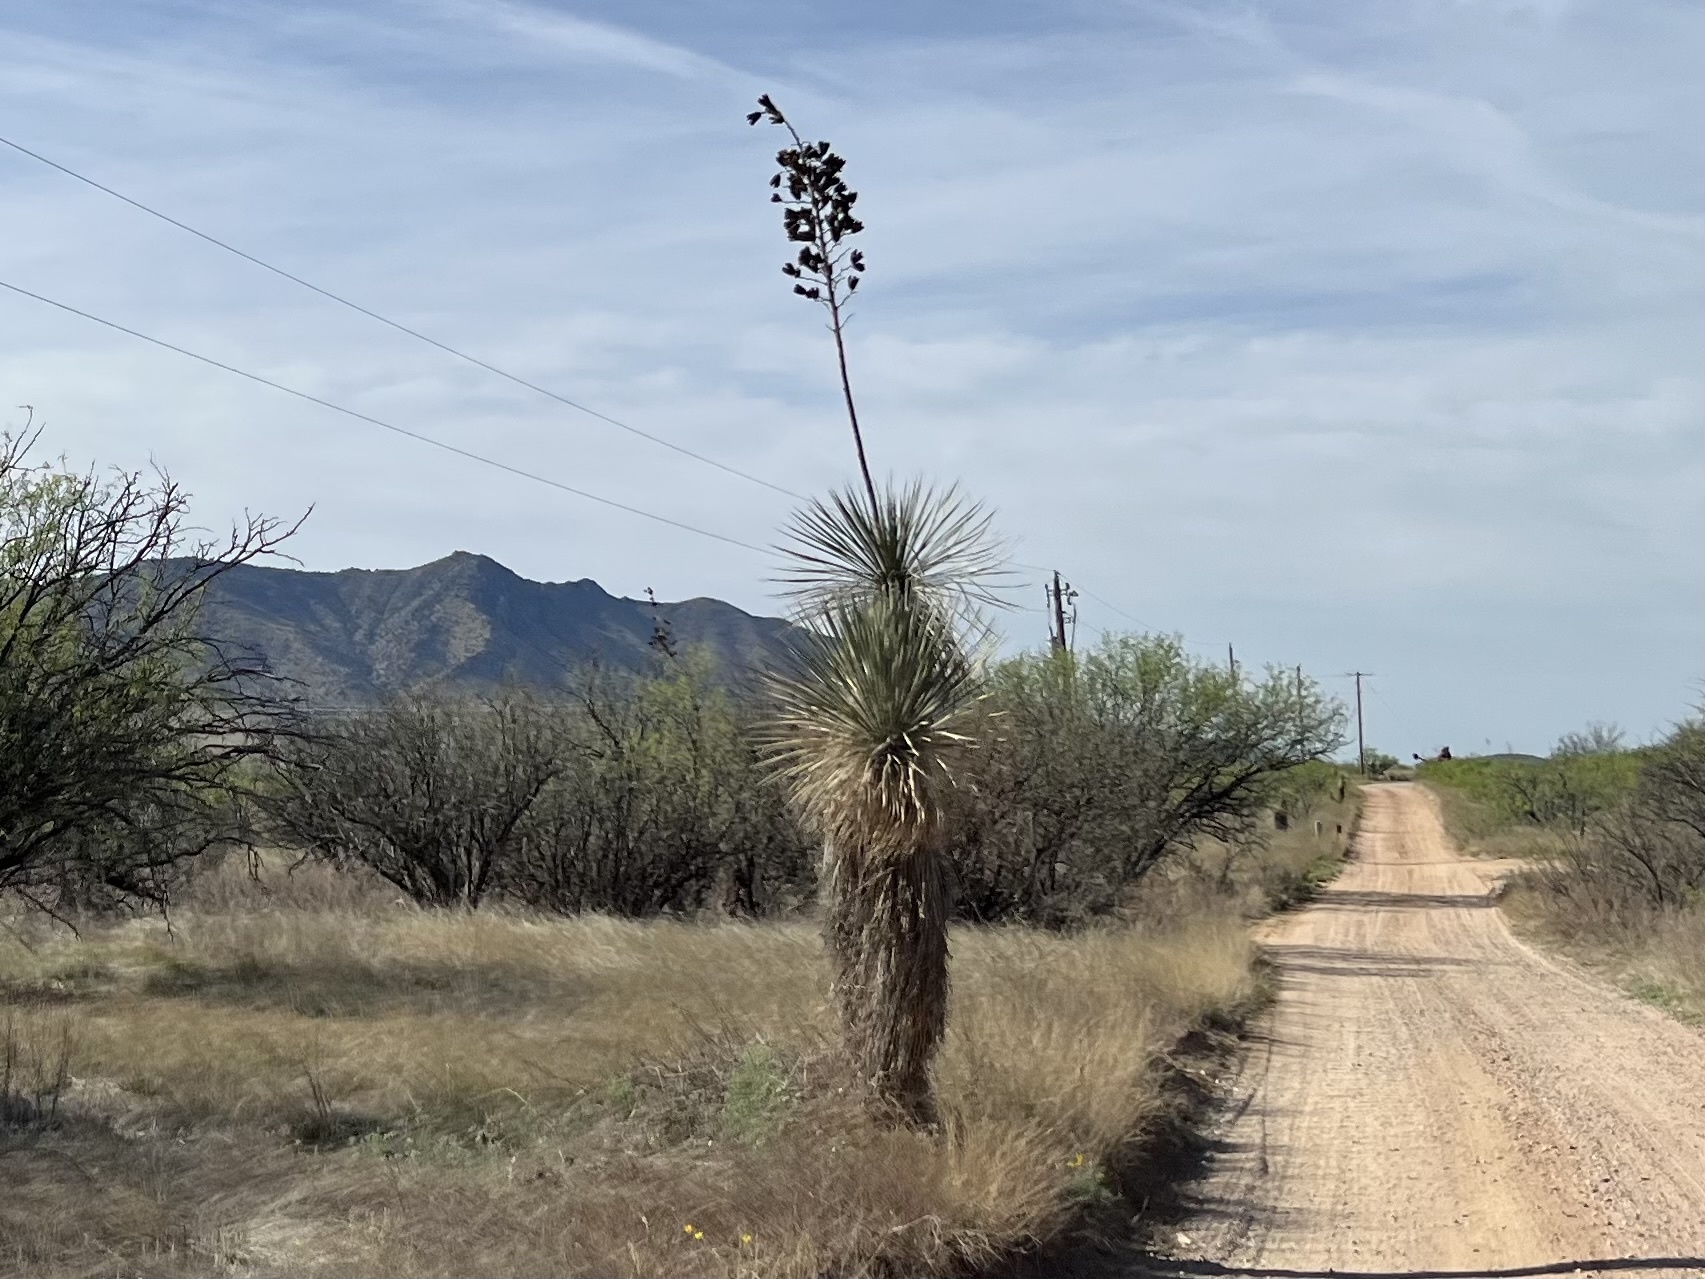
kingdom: Plantae
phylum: Tracheophyta
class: Liliopsida
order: Asparagales
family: Asparagaceae
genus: Yucca
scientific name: Yucca elata
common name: Palmella
